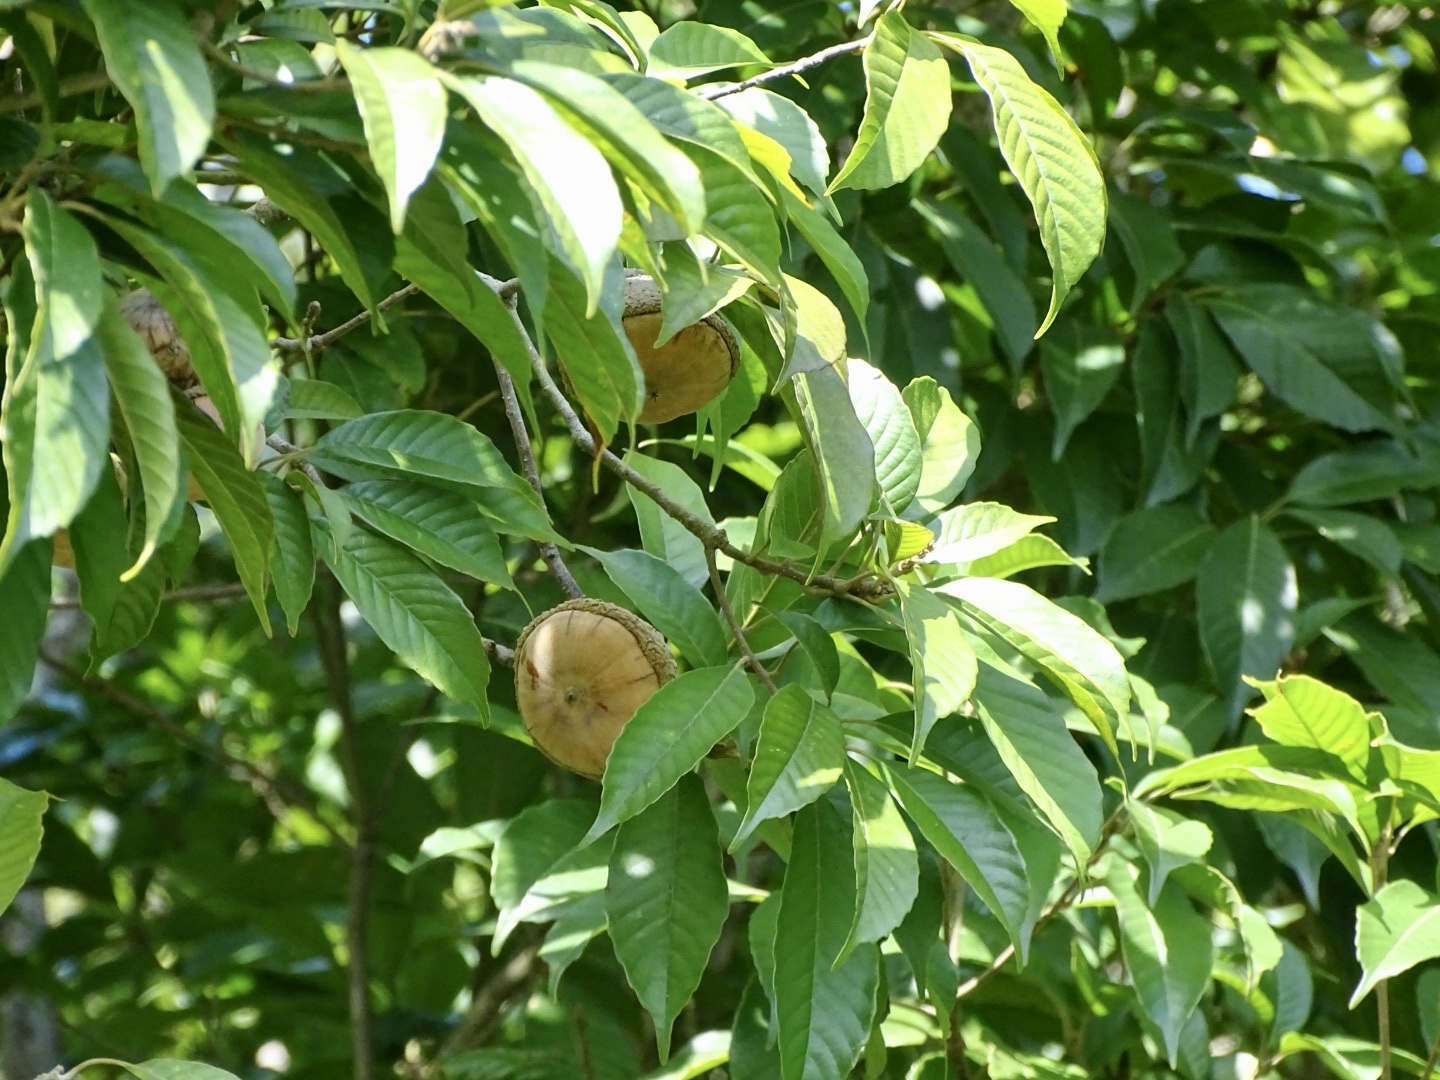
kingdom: Plantae
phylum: Tracheophyta
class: Magnoliopsida
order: Fagales
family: Fagaceae
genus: Lithocarpus
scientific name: Lithocarpus corneus
